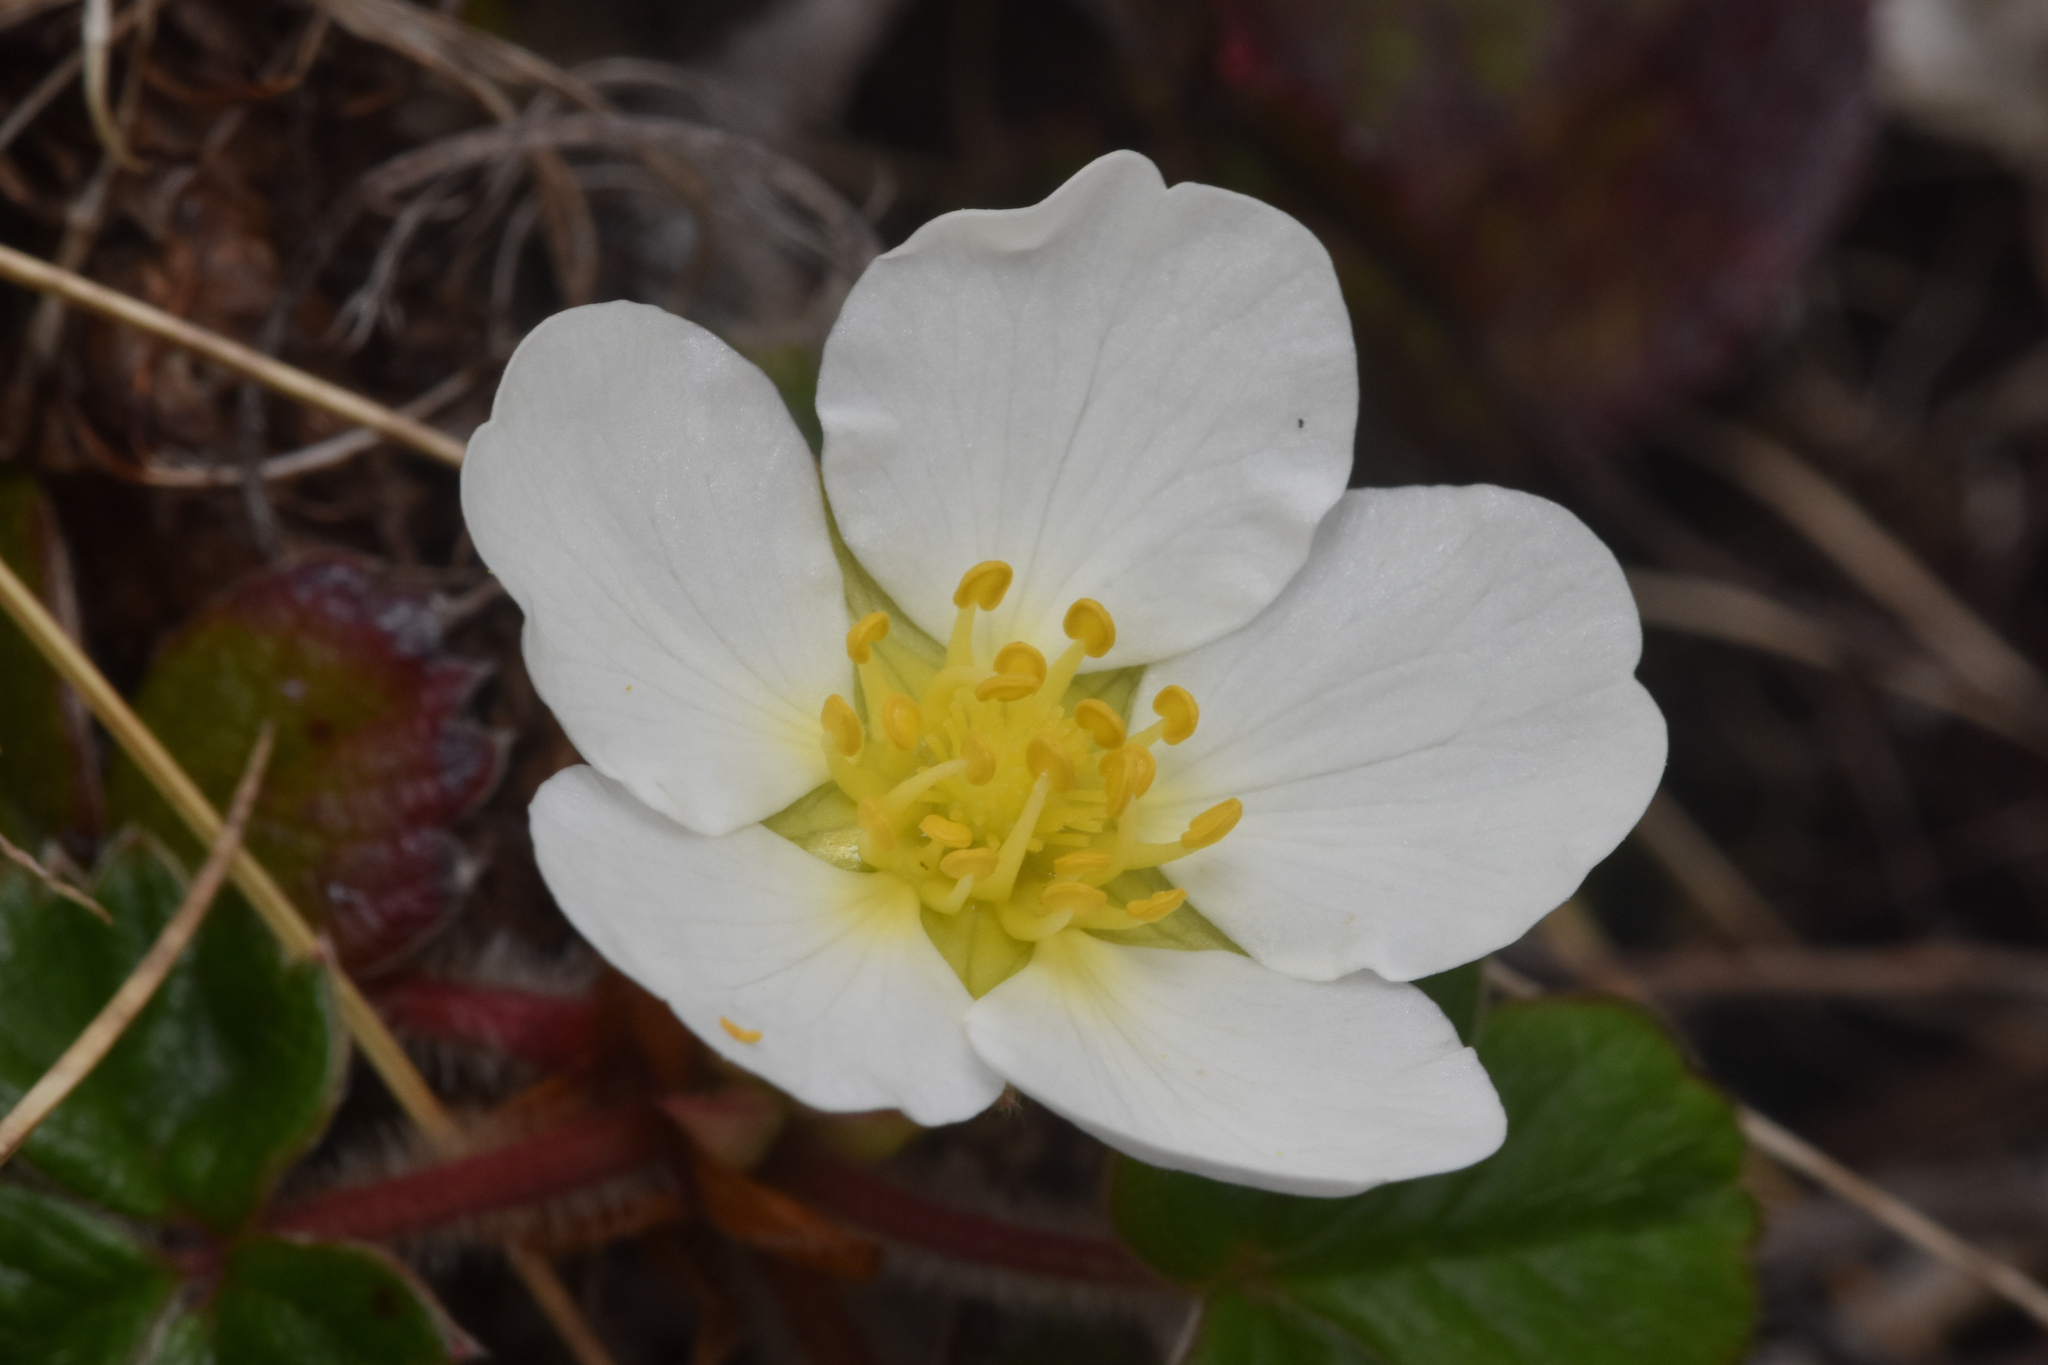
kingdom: Plantae
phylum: Tracheophyta
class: Magnoliopsida
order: Rosales
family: Rosaceae
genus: Fragaria
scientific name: Fragaria chiloensis
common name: Beach strawberry
